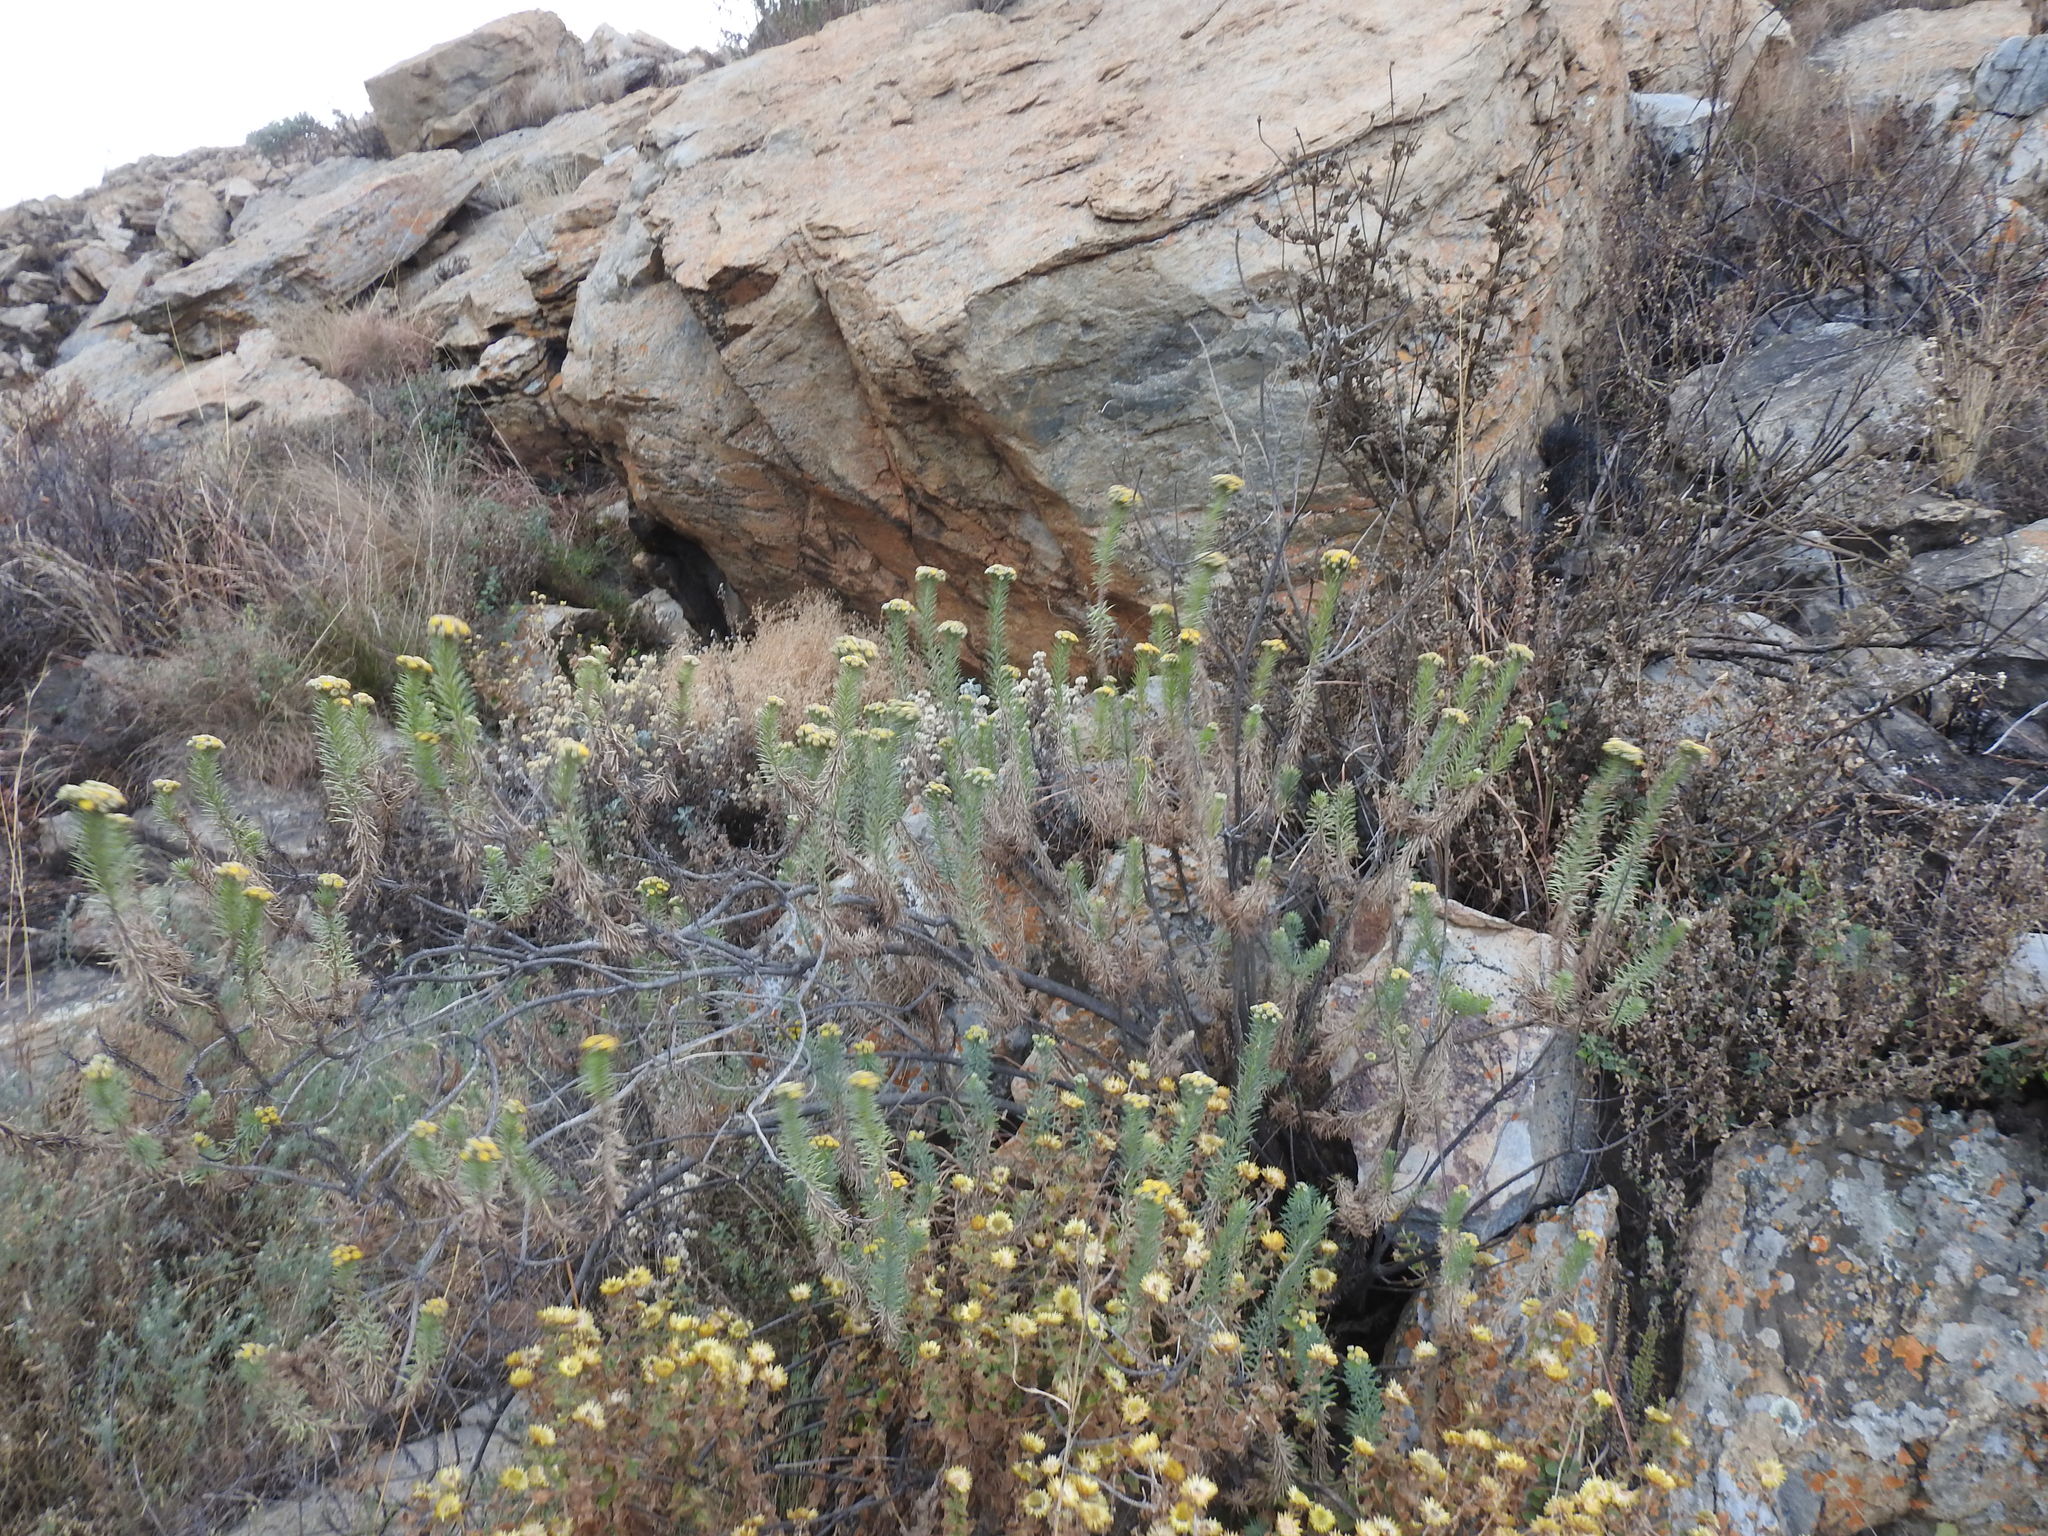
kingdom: Plantae
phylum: Tracheophyta
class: Magnoliopsida
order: Asterales
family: Asteraceae
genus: Phymaspermum
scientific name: Phymaspermum athanasioides
